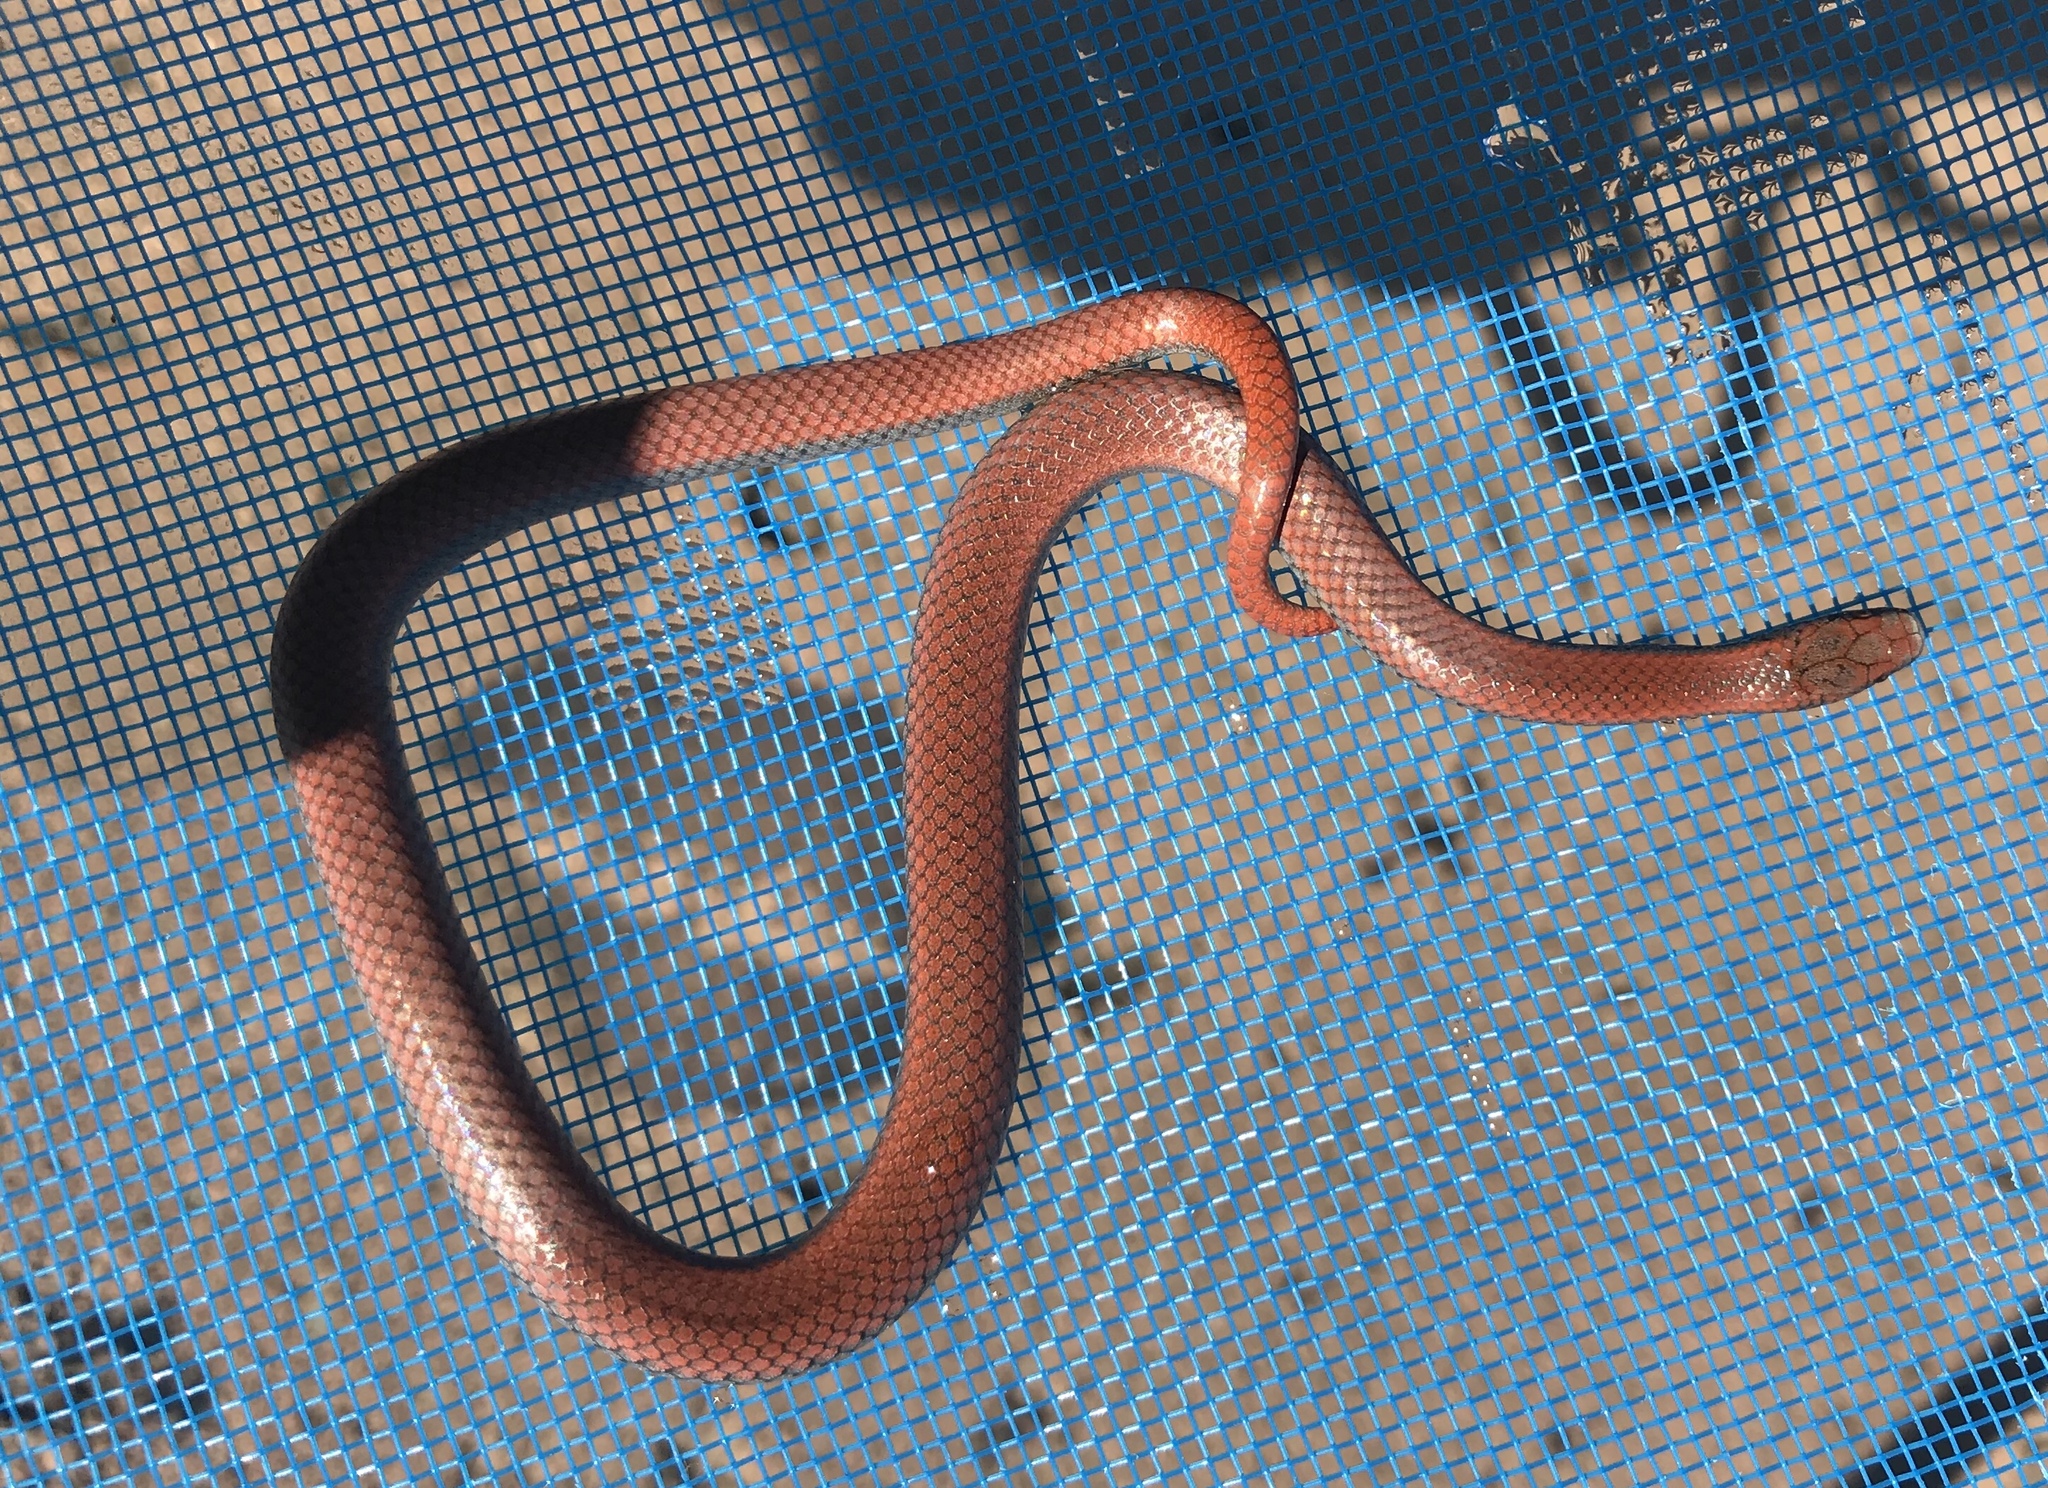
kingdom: Animalia
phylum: Chordata
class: Squamata
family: Colubridae
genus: Contia
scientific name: Contia tenuis
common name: Sharptail snake
